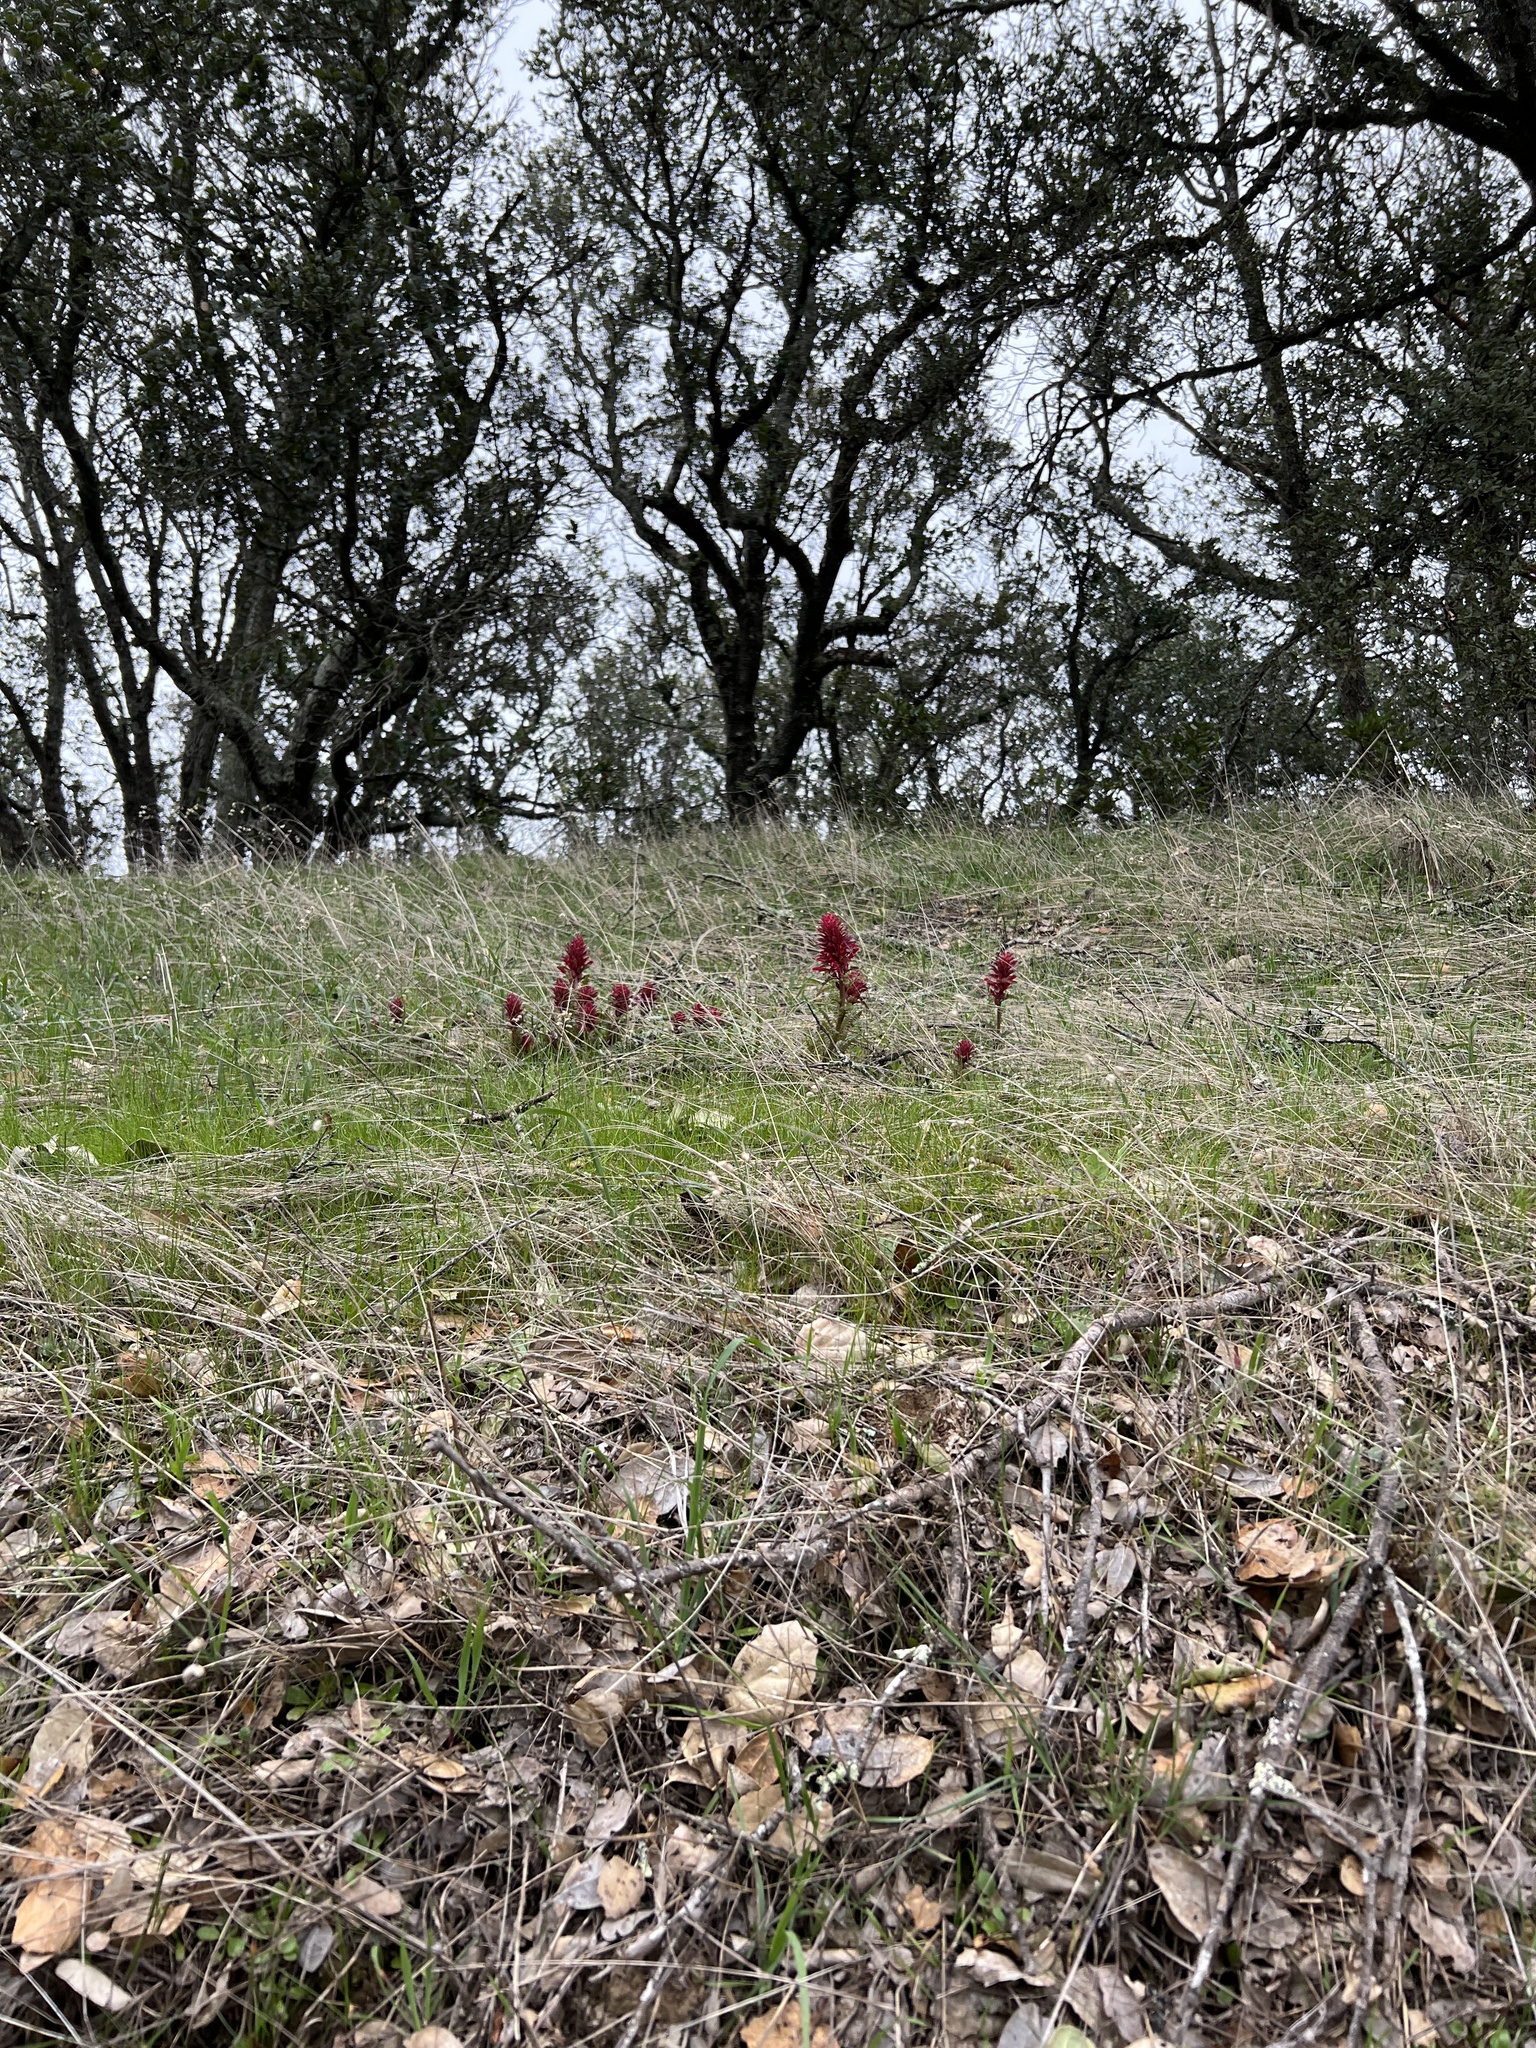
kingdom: Plantae
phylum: Tracheophyta
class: Magnoliopsida
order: Lamiales
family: Orobanchaceae
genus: Pedicularis
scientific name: Pedicularis densiflora
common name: Indian warrior
